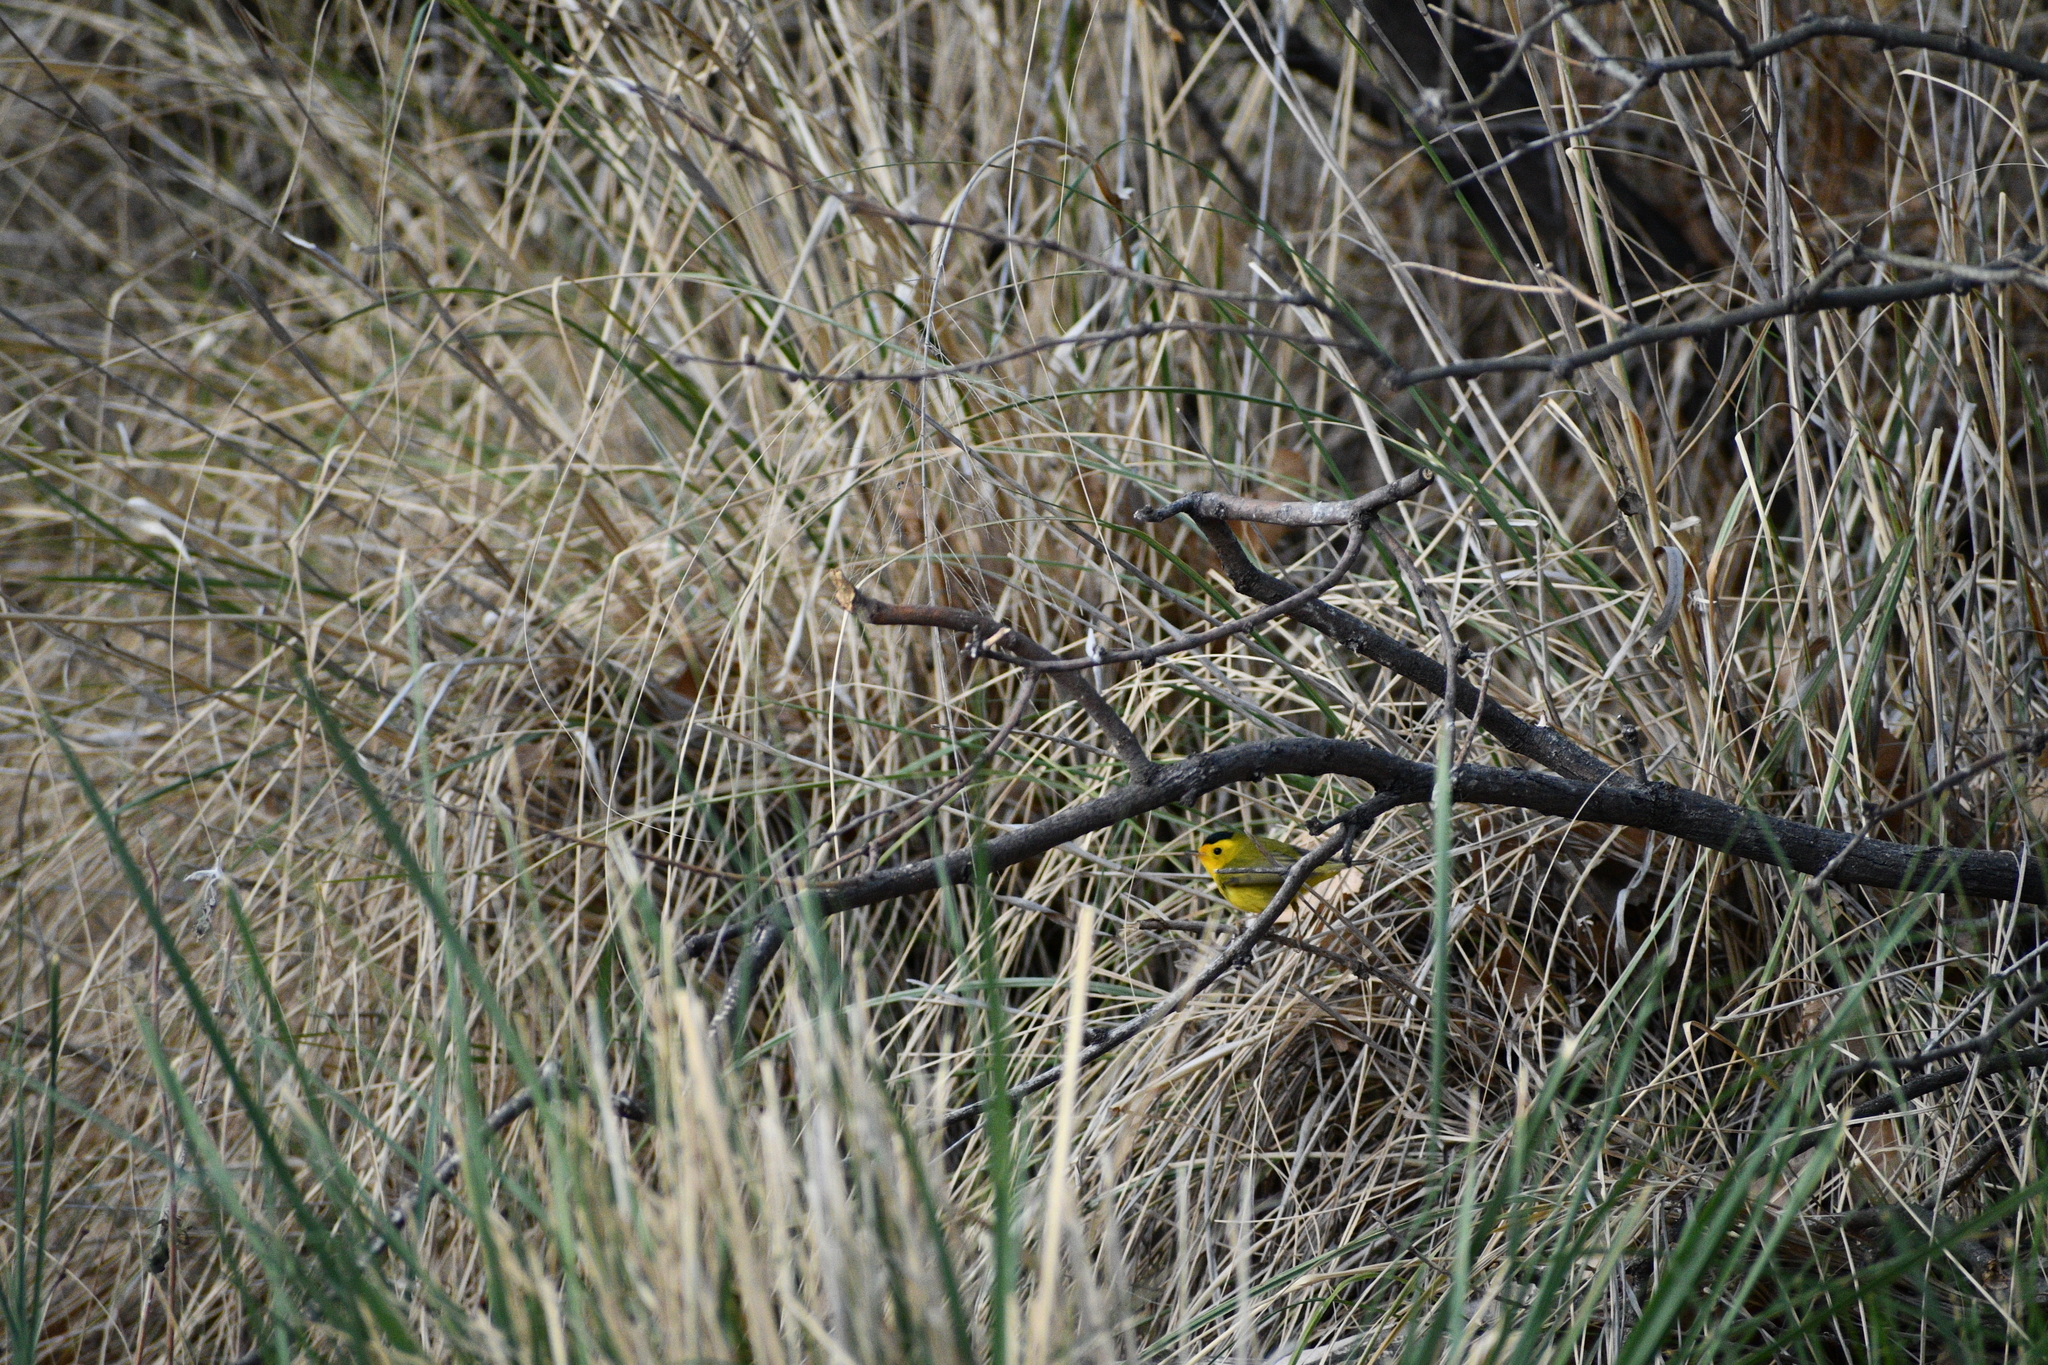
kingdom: Animalia
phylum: Chordata
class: Aves
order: Passeriformes
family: Parulidae
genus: Cardellina
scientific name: Cardellina pusilla
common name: Wilson's warbler
